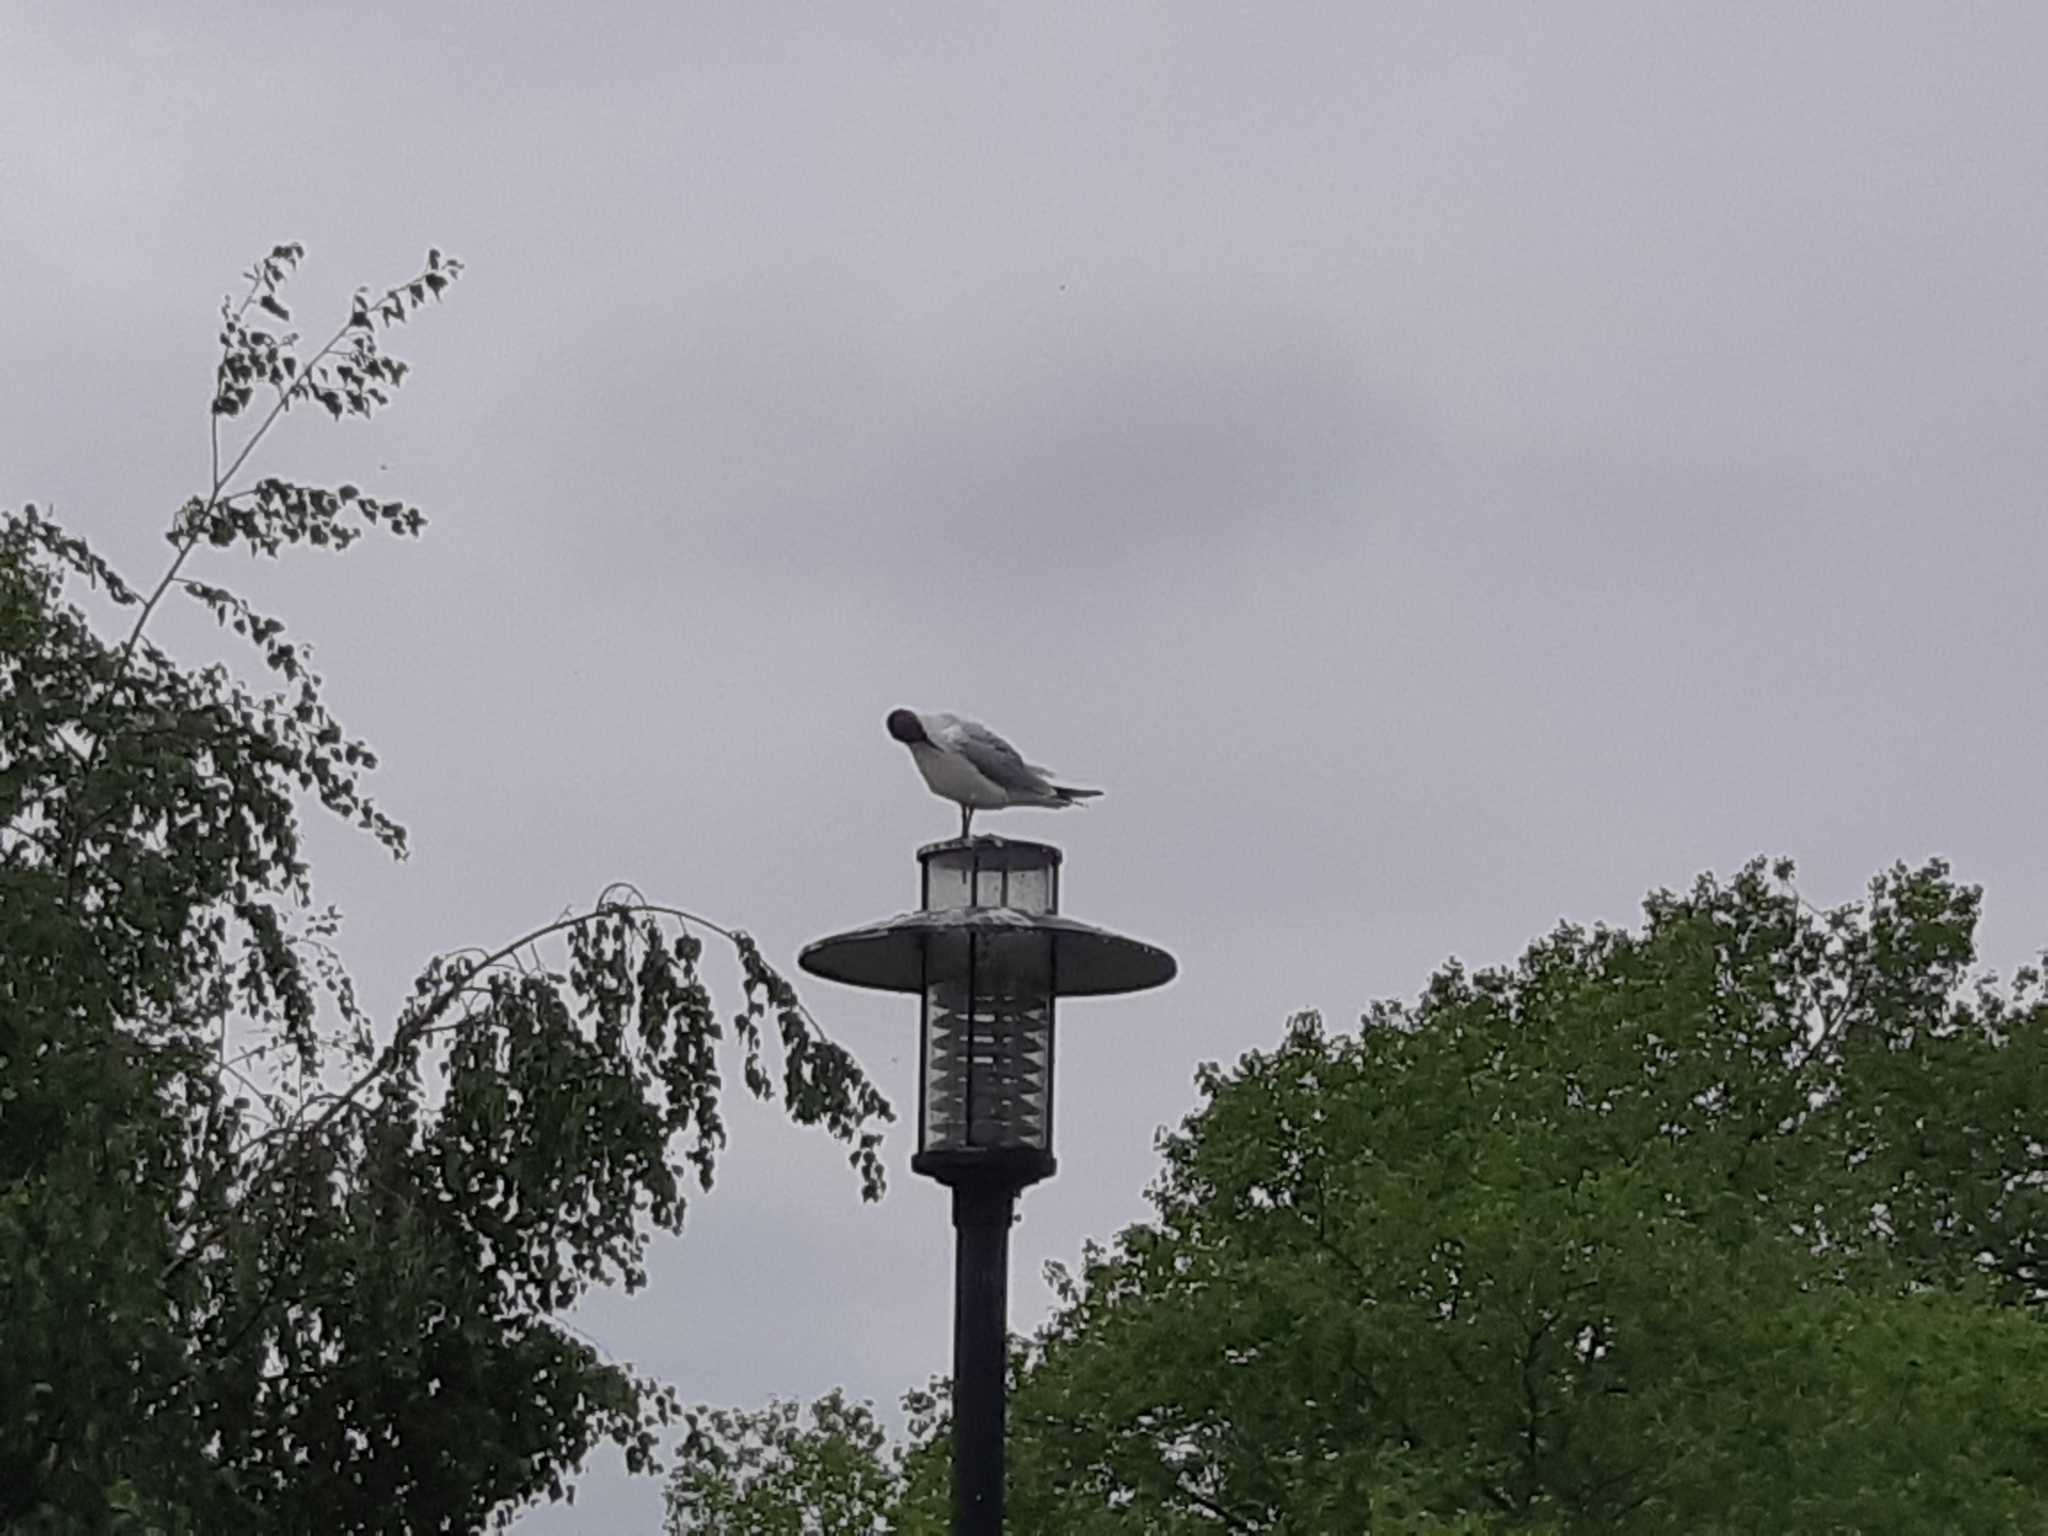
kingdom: Animalia
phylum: Chordata
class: Aves
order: Charadriiformes
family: Laridae
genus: Chroicocephalus
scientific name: Chroicocephalus ridibundus
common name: Black-headed gull
